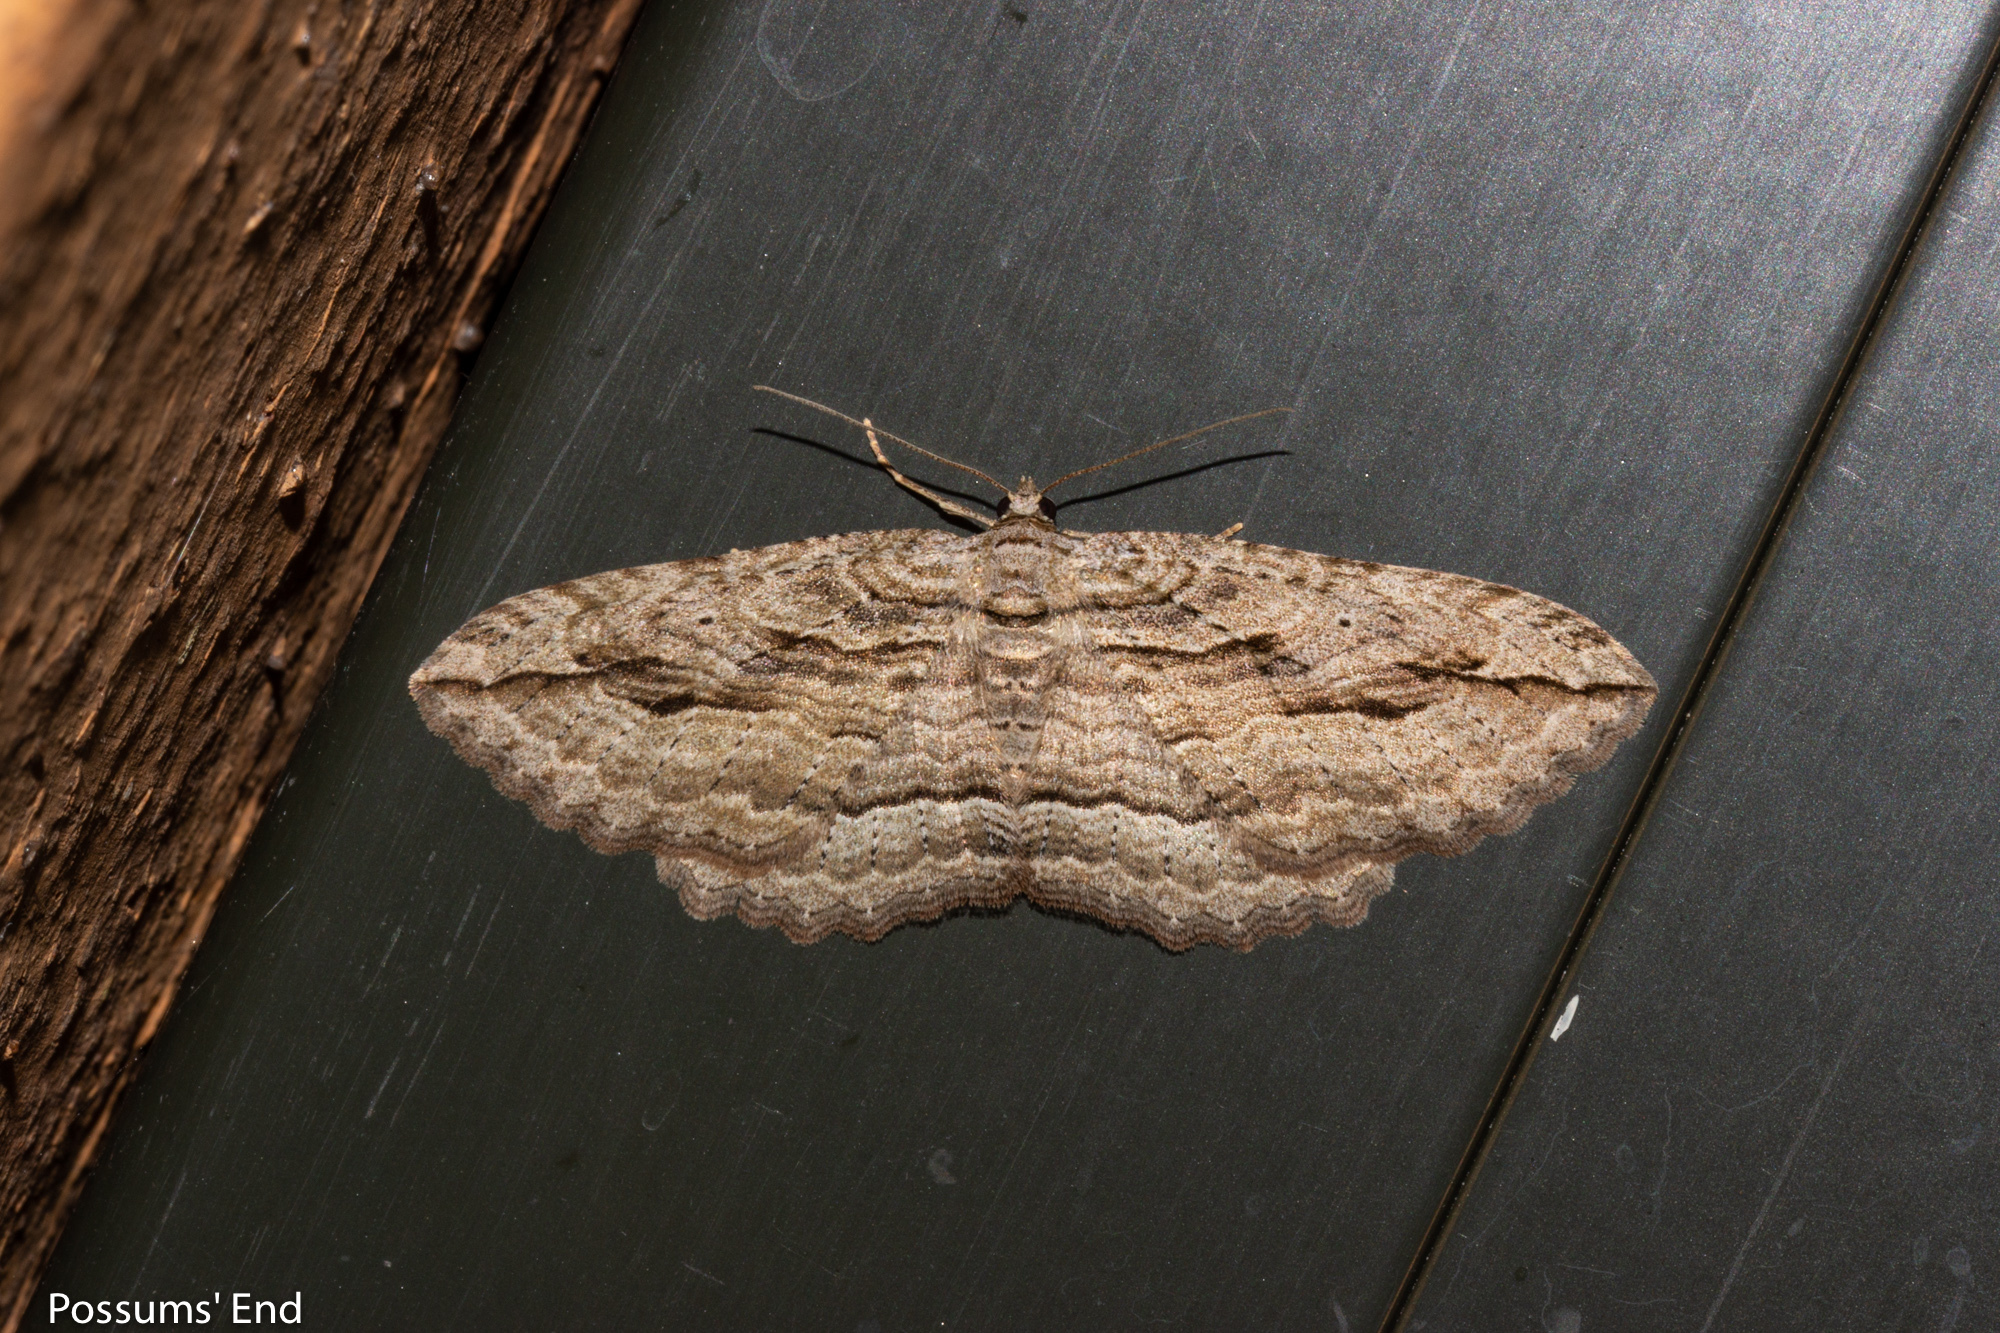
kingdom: Animalia
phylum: Arthropoda
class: Insecta
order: Lepidoptera
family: Geometridae
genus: Austrocidaria
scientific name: Austrocidaria gobiata
